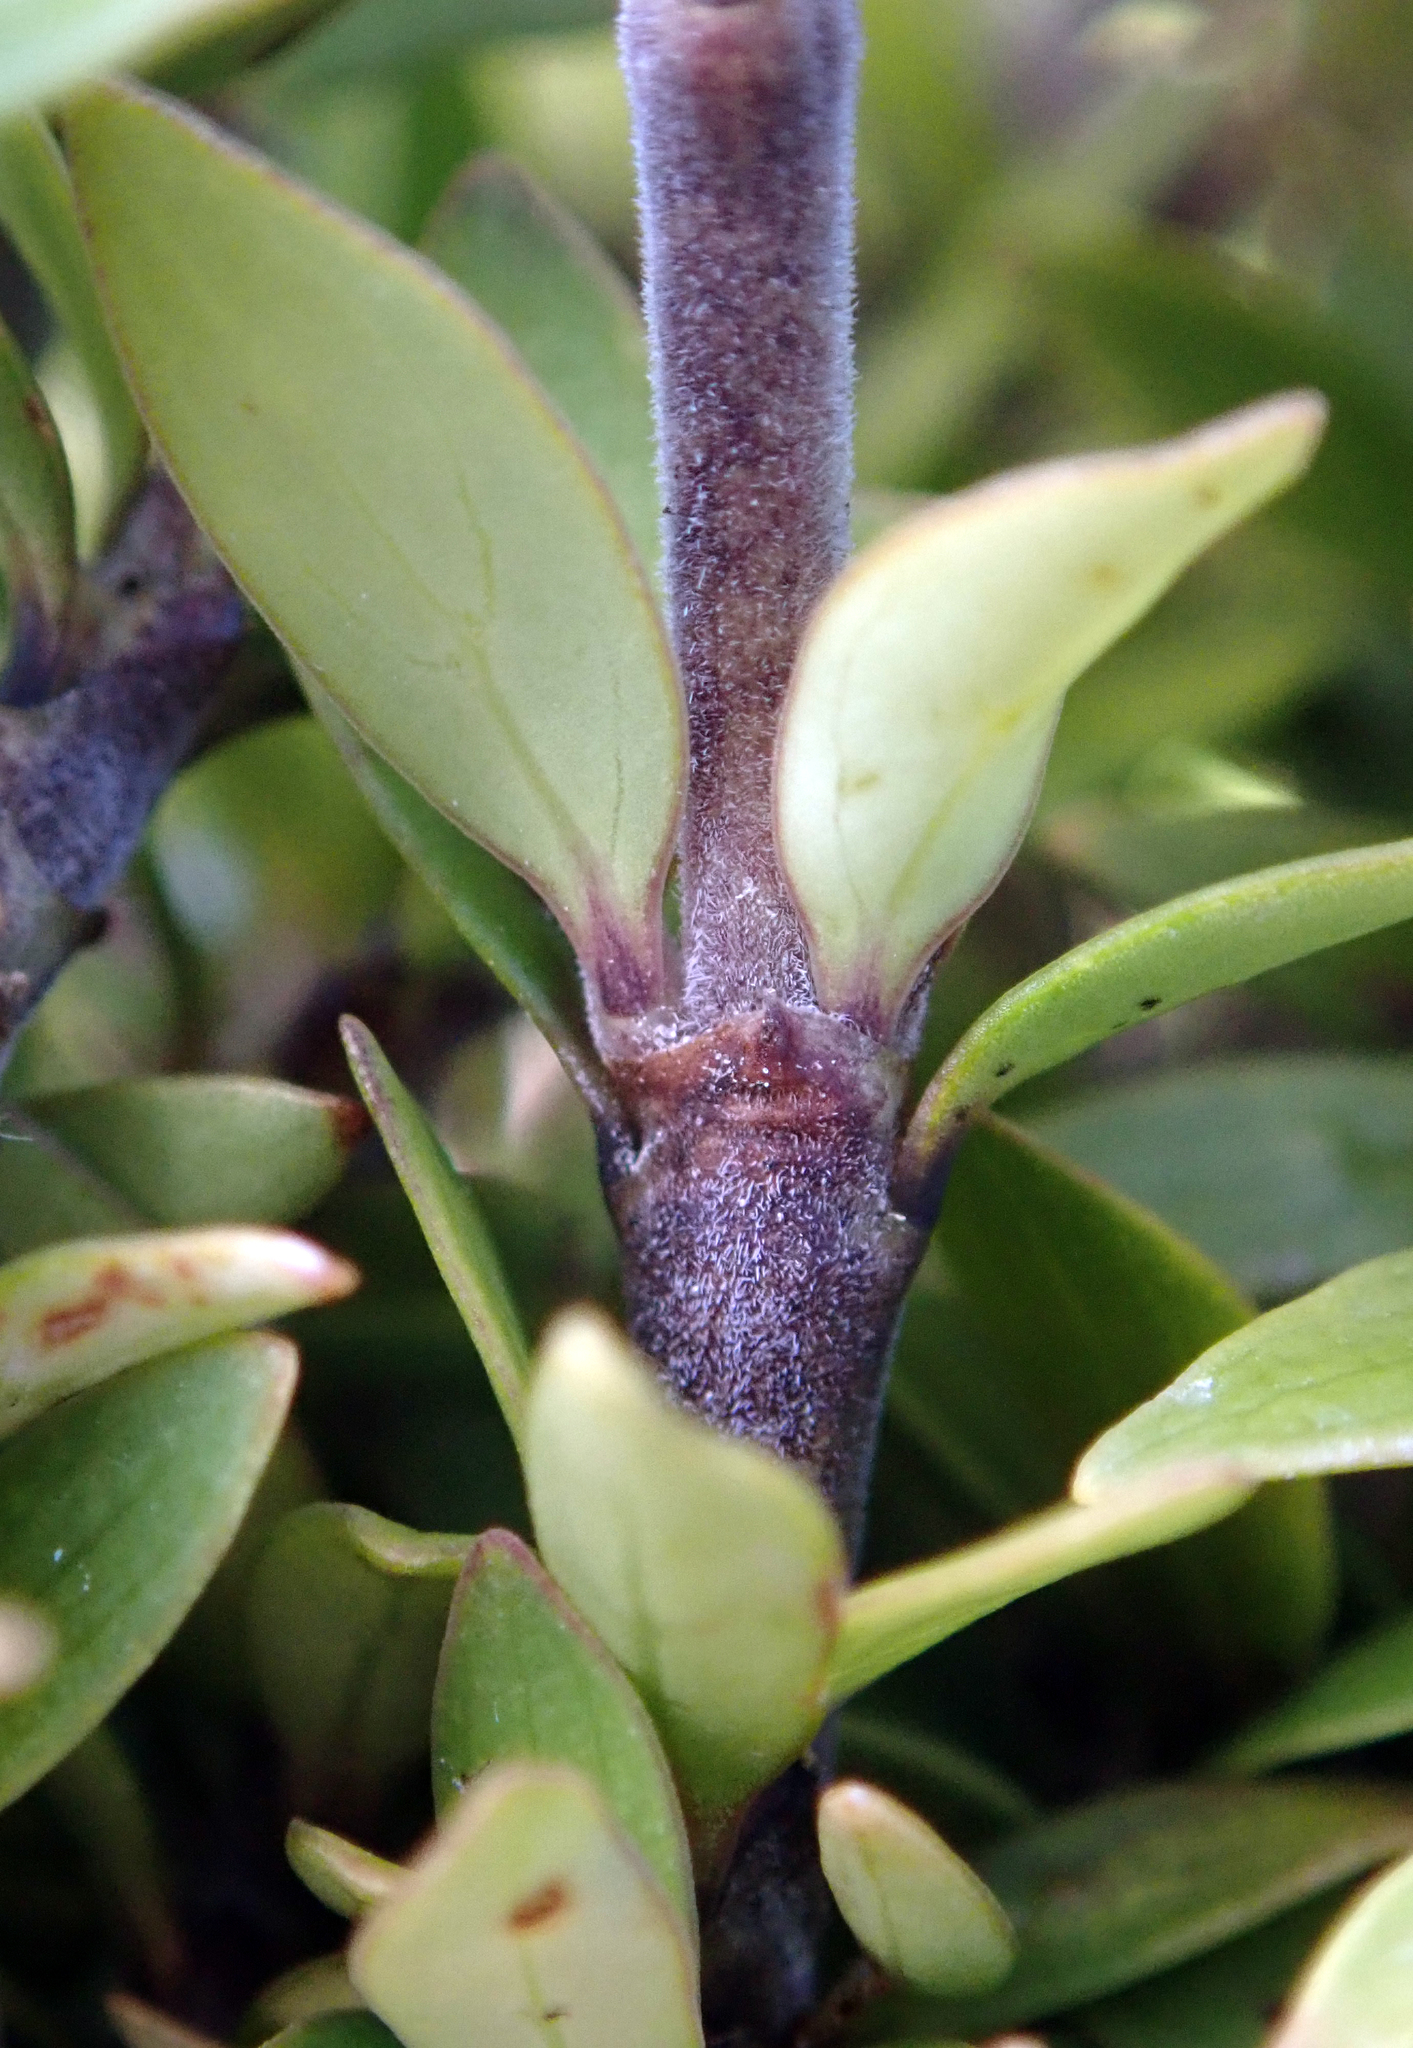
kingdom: Plantae
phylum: Tracheophyta
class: Magnoliopsida
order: Gentianales
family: Rubiaceae
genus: Coprosma
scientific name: Coprosma propinqua
